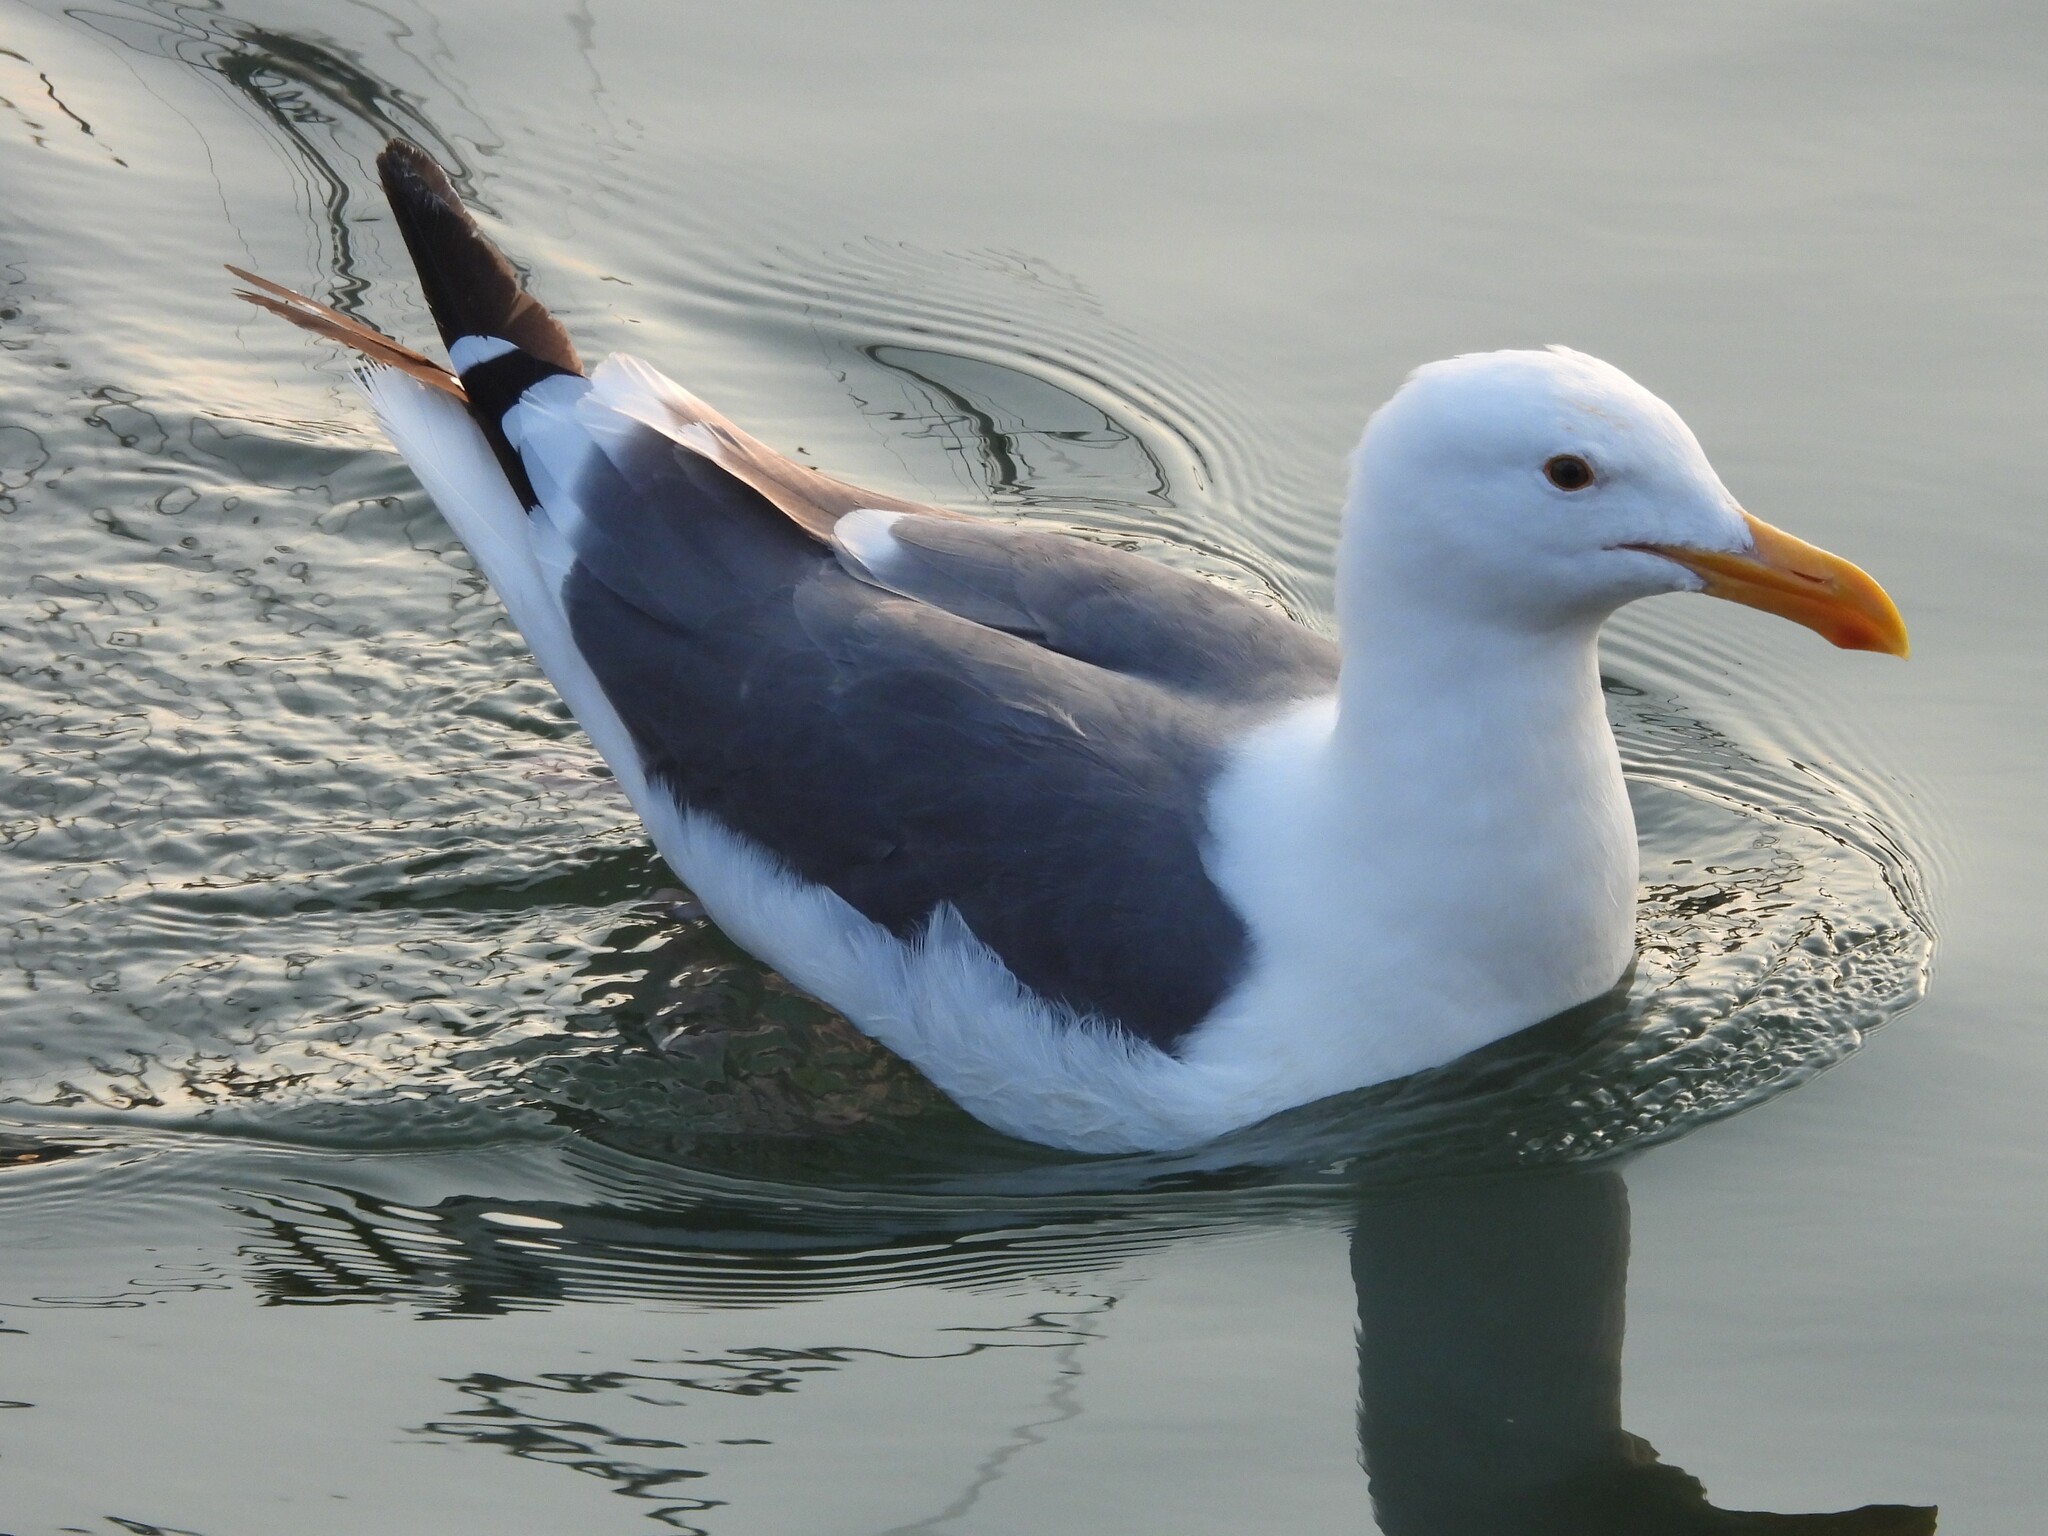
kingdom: Animalia
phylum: Chordata
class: Aves
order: Charadriiformes
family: Laridae
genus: Larus
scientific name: Larus occidentalis
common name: Western gull
